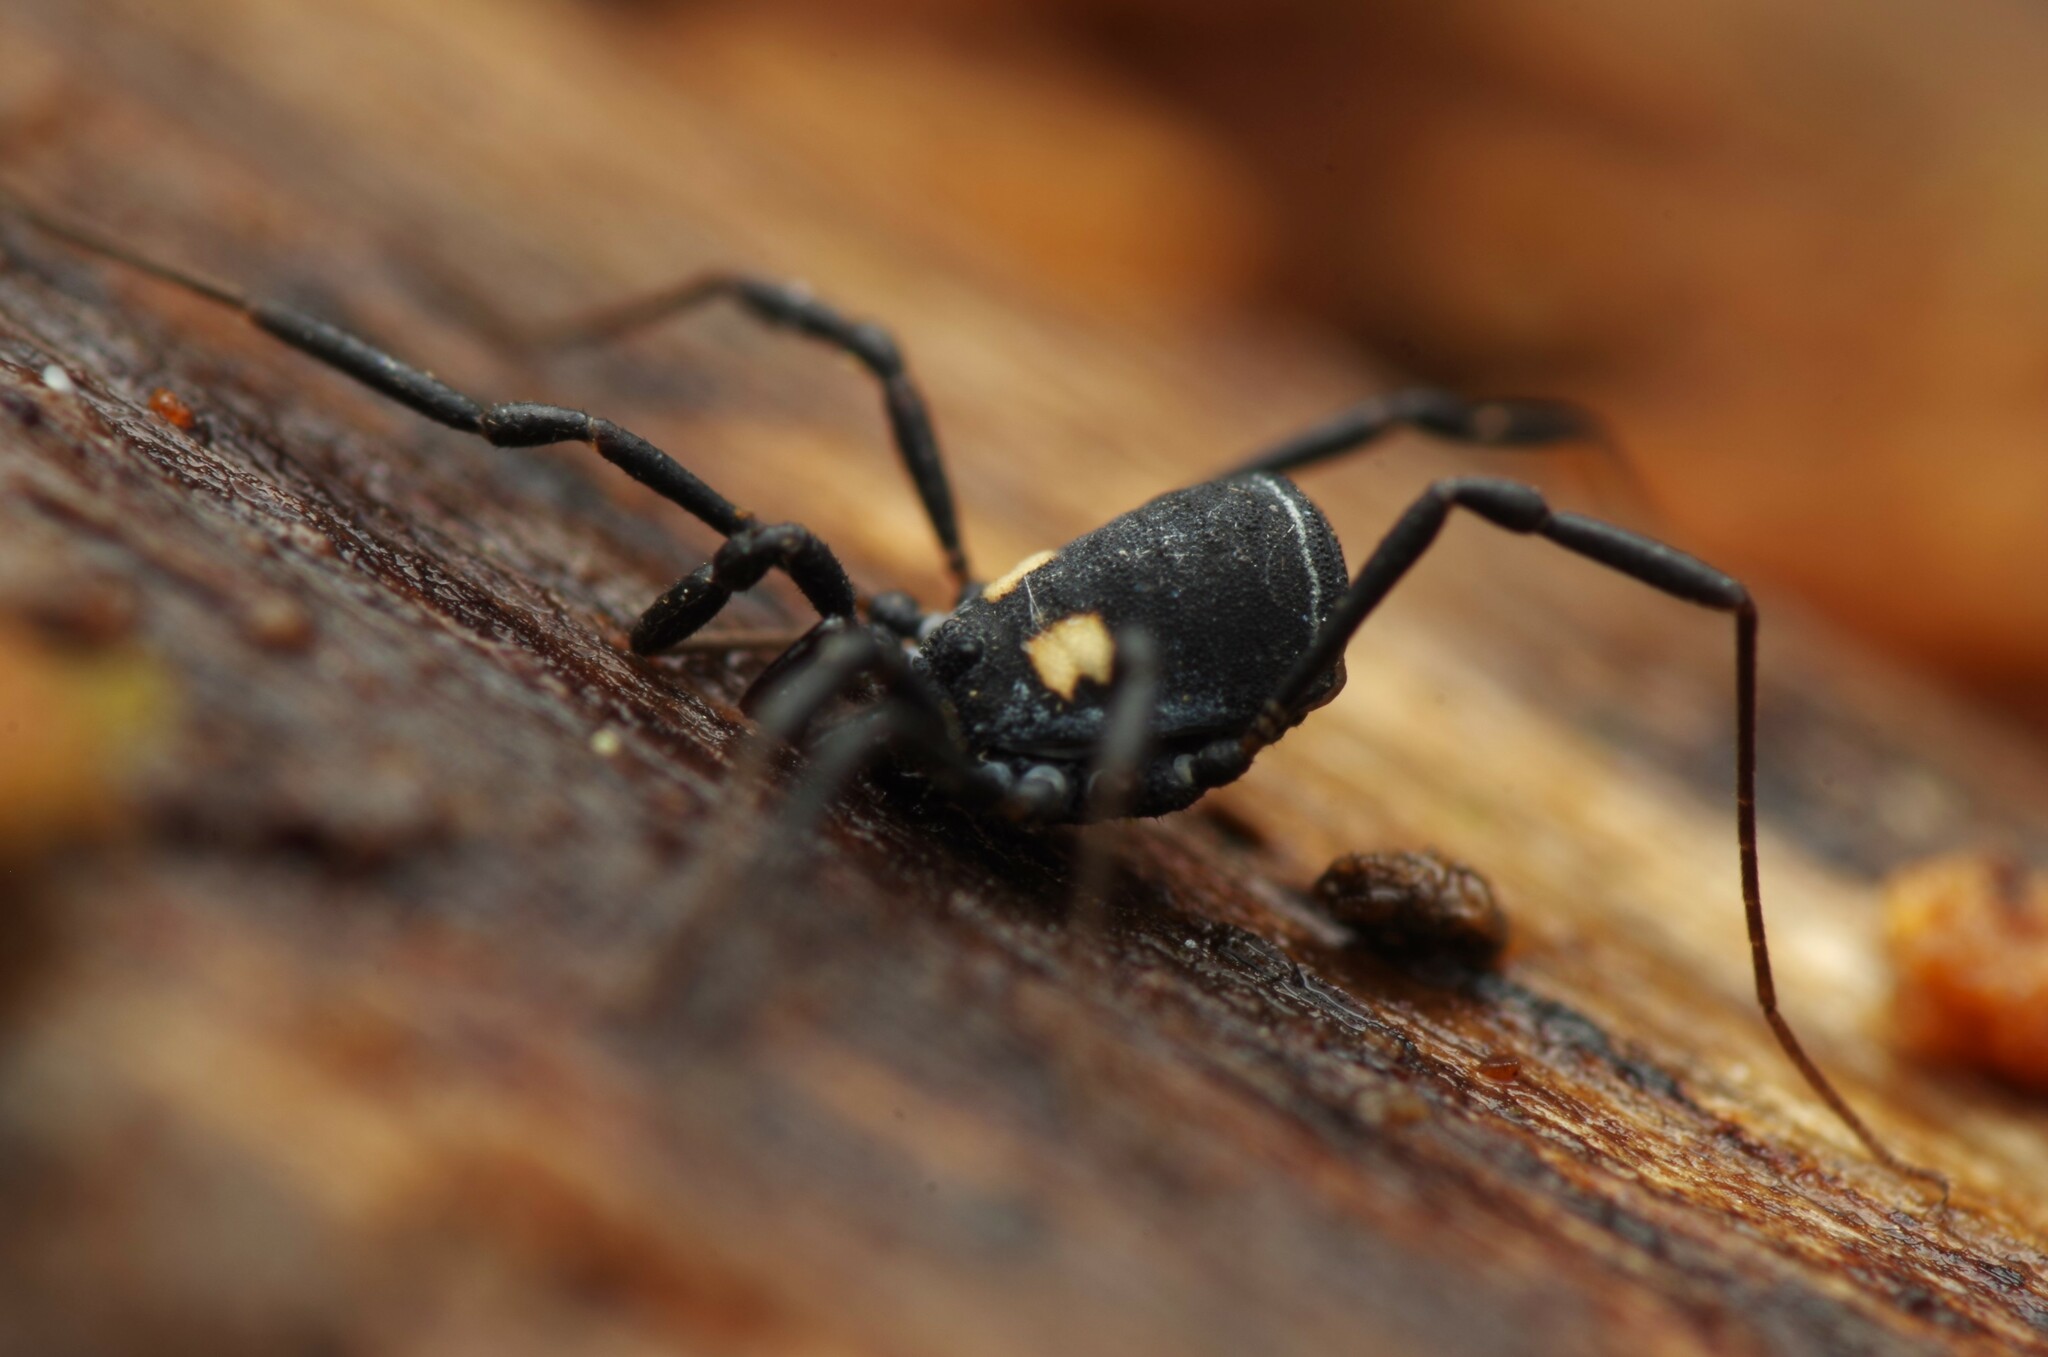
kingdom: Animalia
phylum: Arthropoda
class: Arachnida
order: Opiliones
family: Nemastomatidae
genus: Nemastoma
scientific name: Nemastoma bimaculatum
